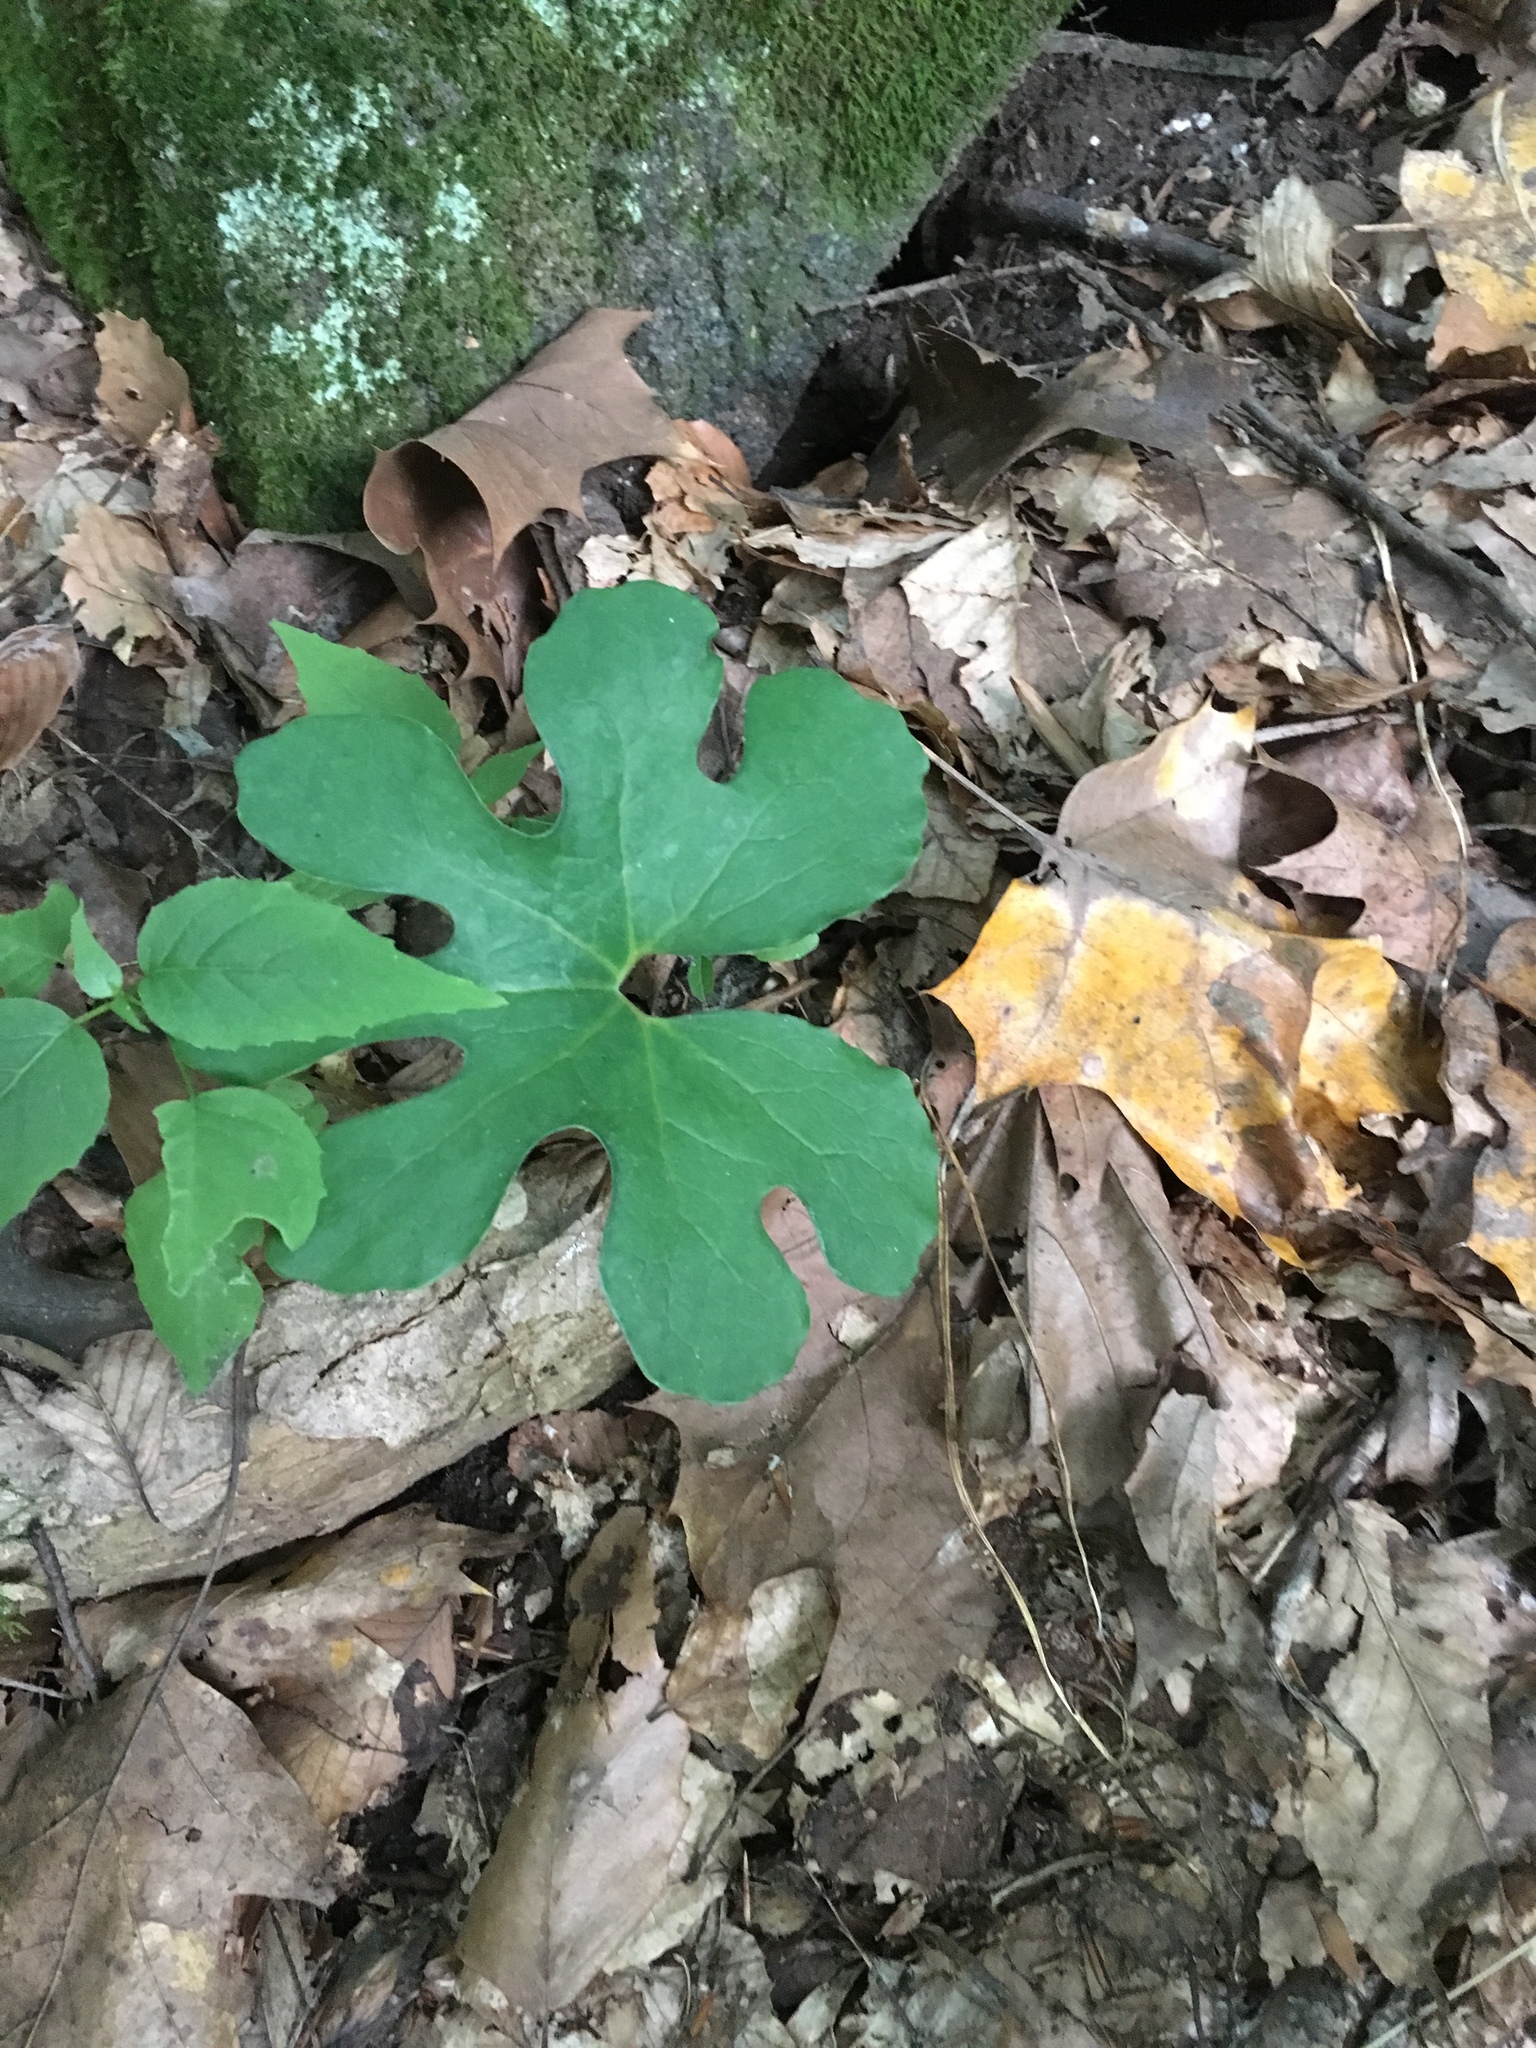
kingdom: Plantae
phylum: Tracheophyta
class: Magnoliopsida
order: Ranunculales
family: Papaveraceae
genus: Sanguinaria
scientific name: Sanguinaria canadensis
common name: Bloodroot
